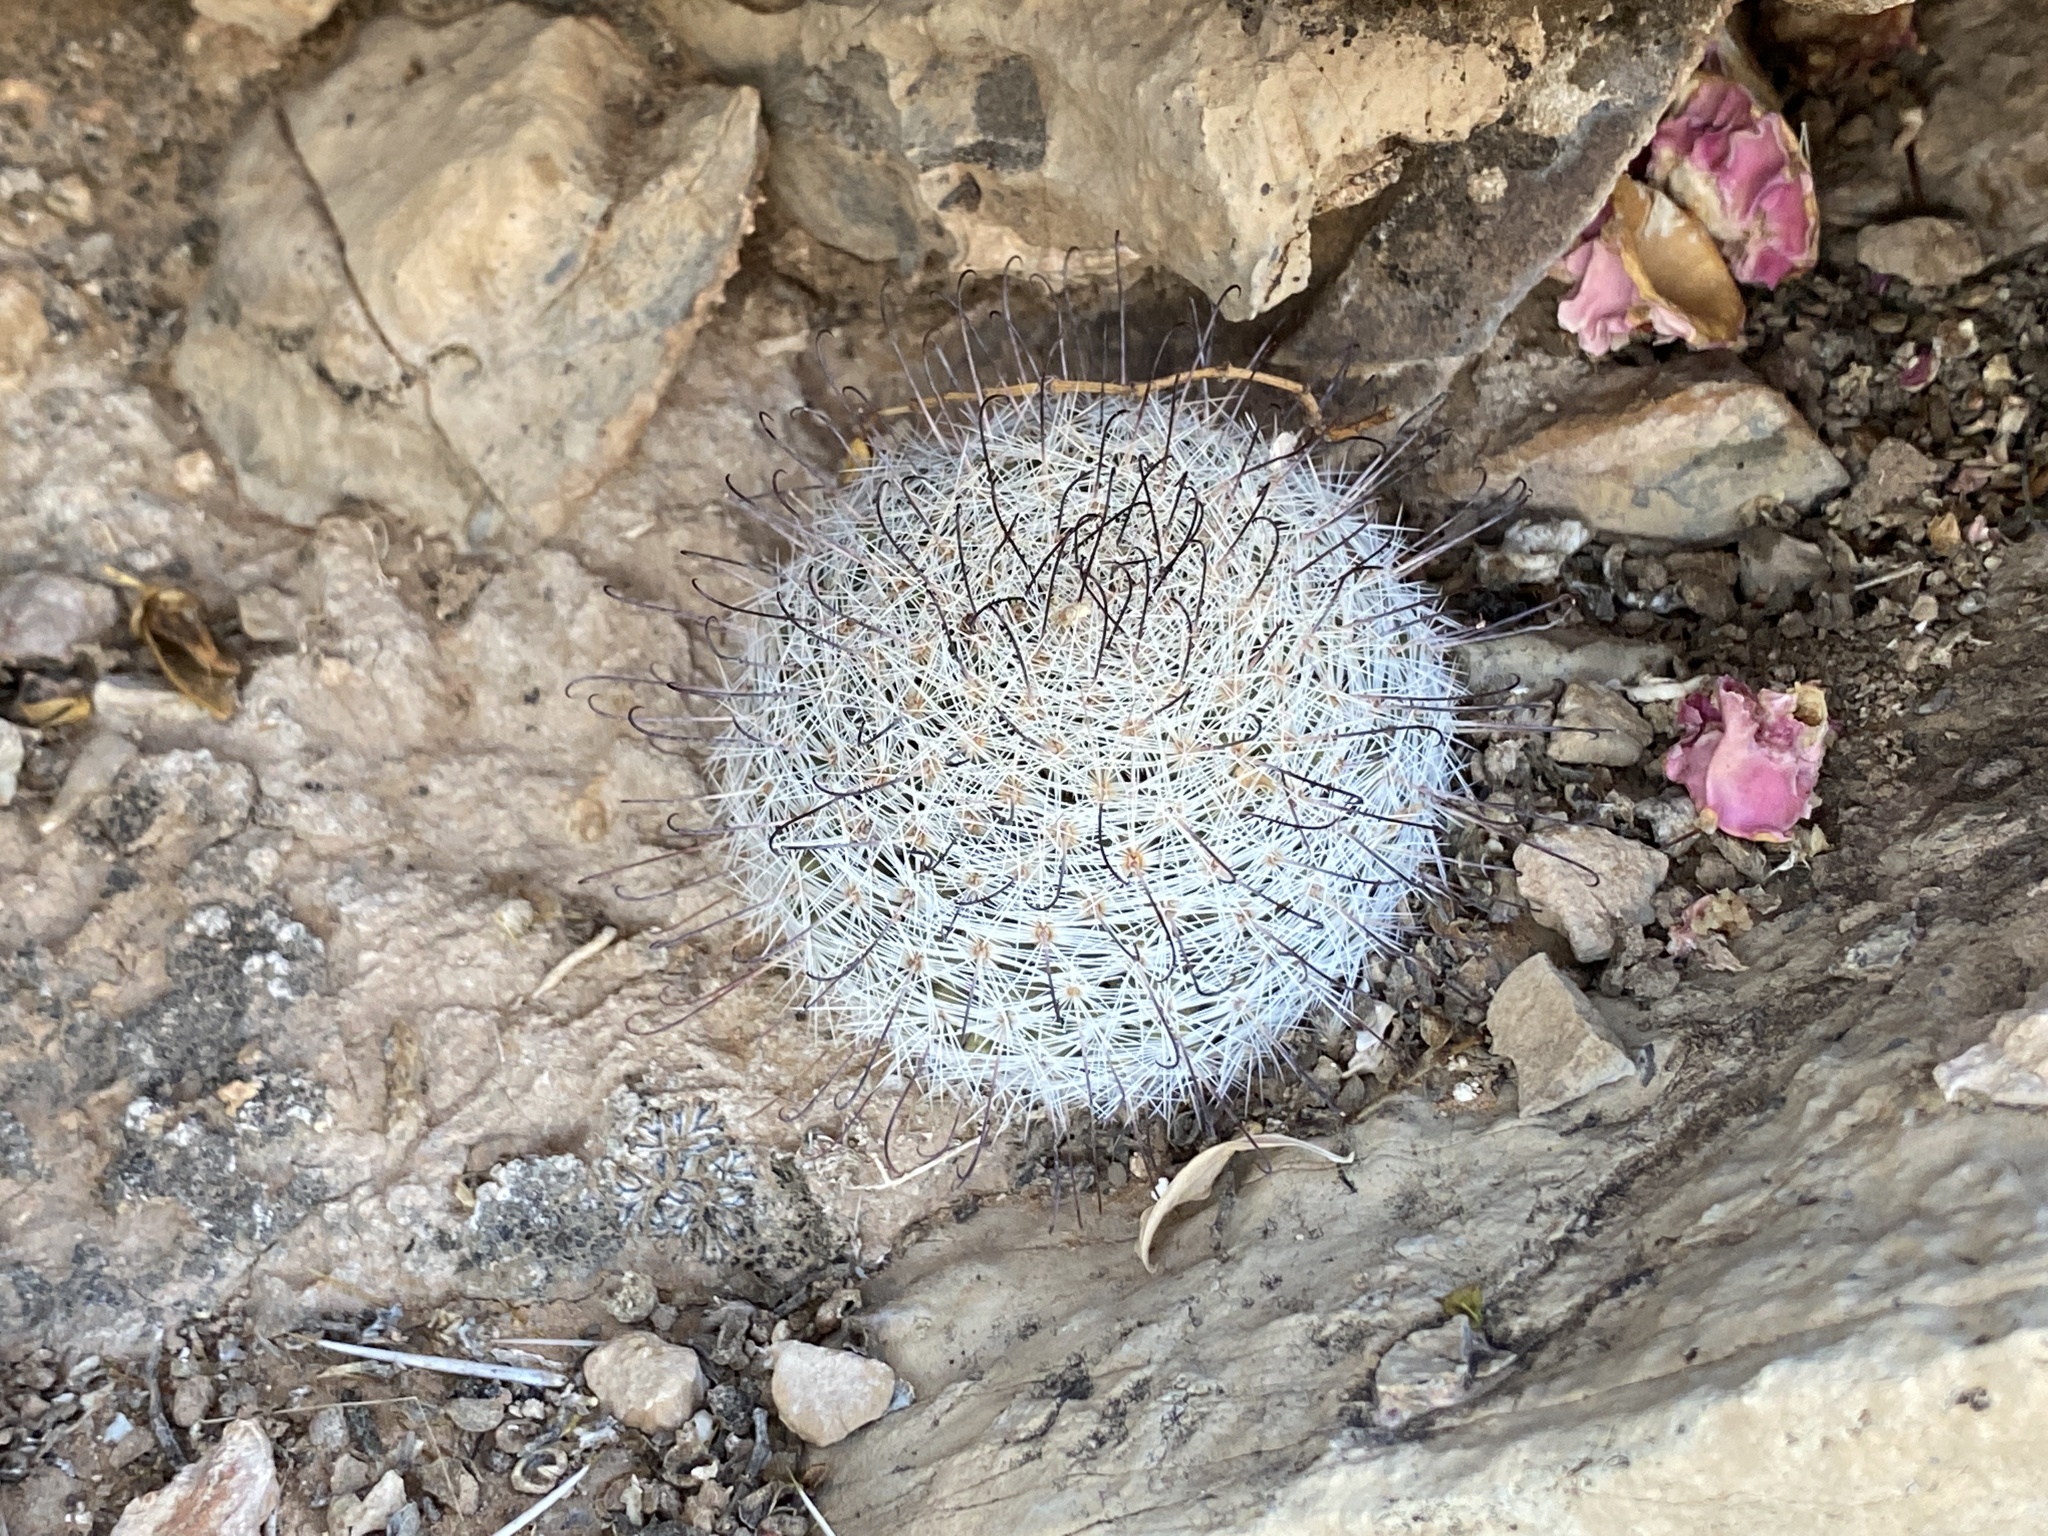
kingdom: Plantae
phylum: Tracheophyta
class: Magnoliopsida
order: Caryophyllales
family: Cactaceae
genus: Cochemiea
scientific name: Cochemiea grahamii
